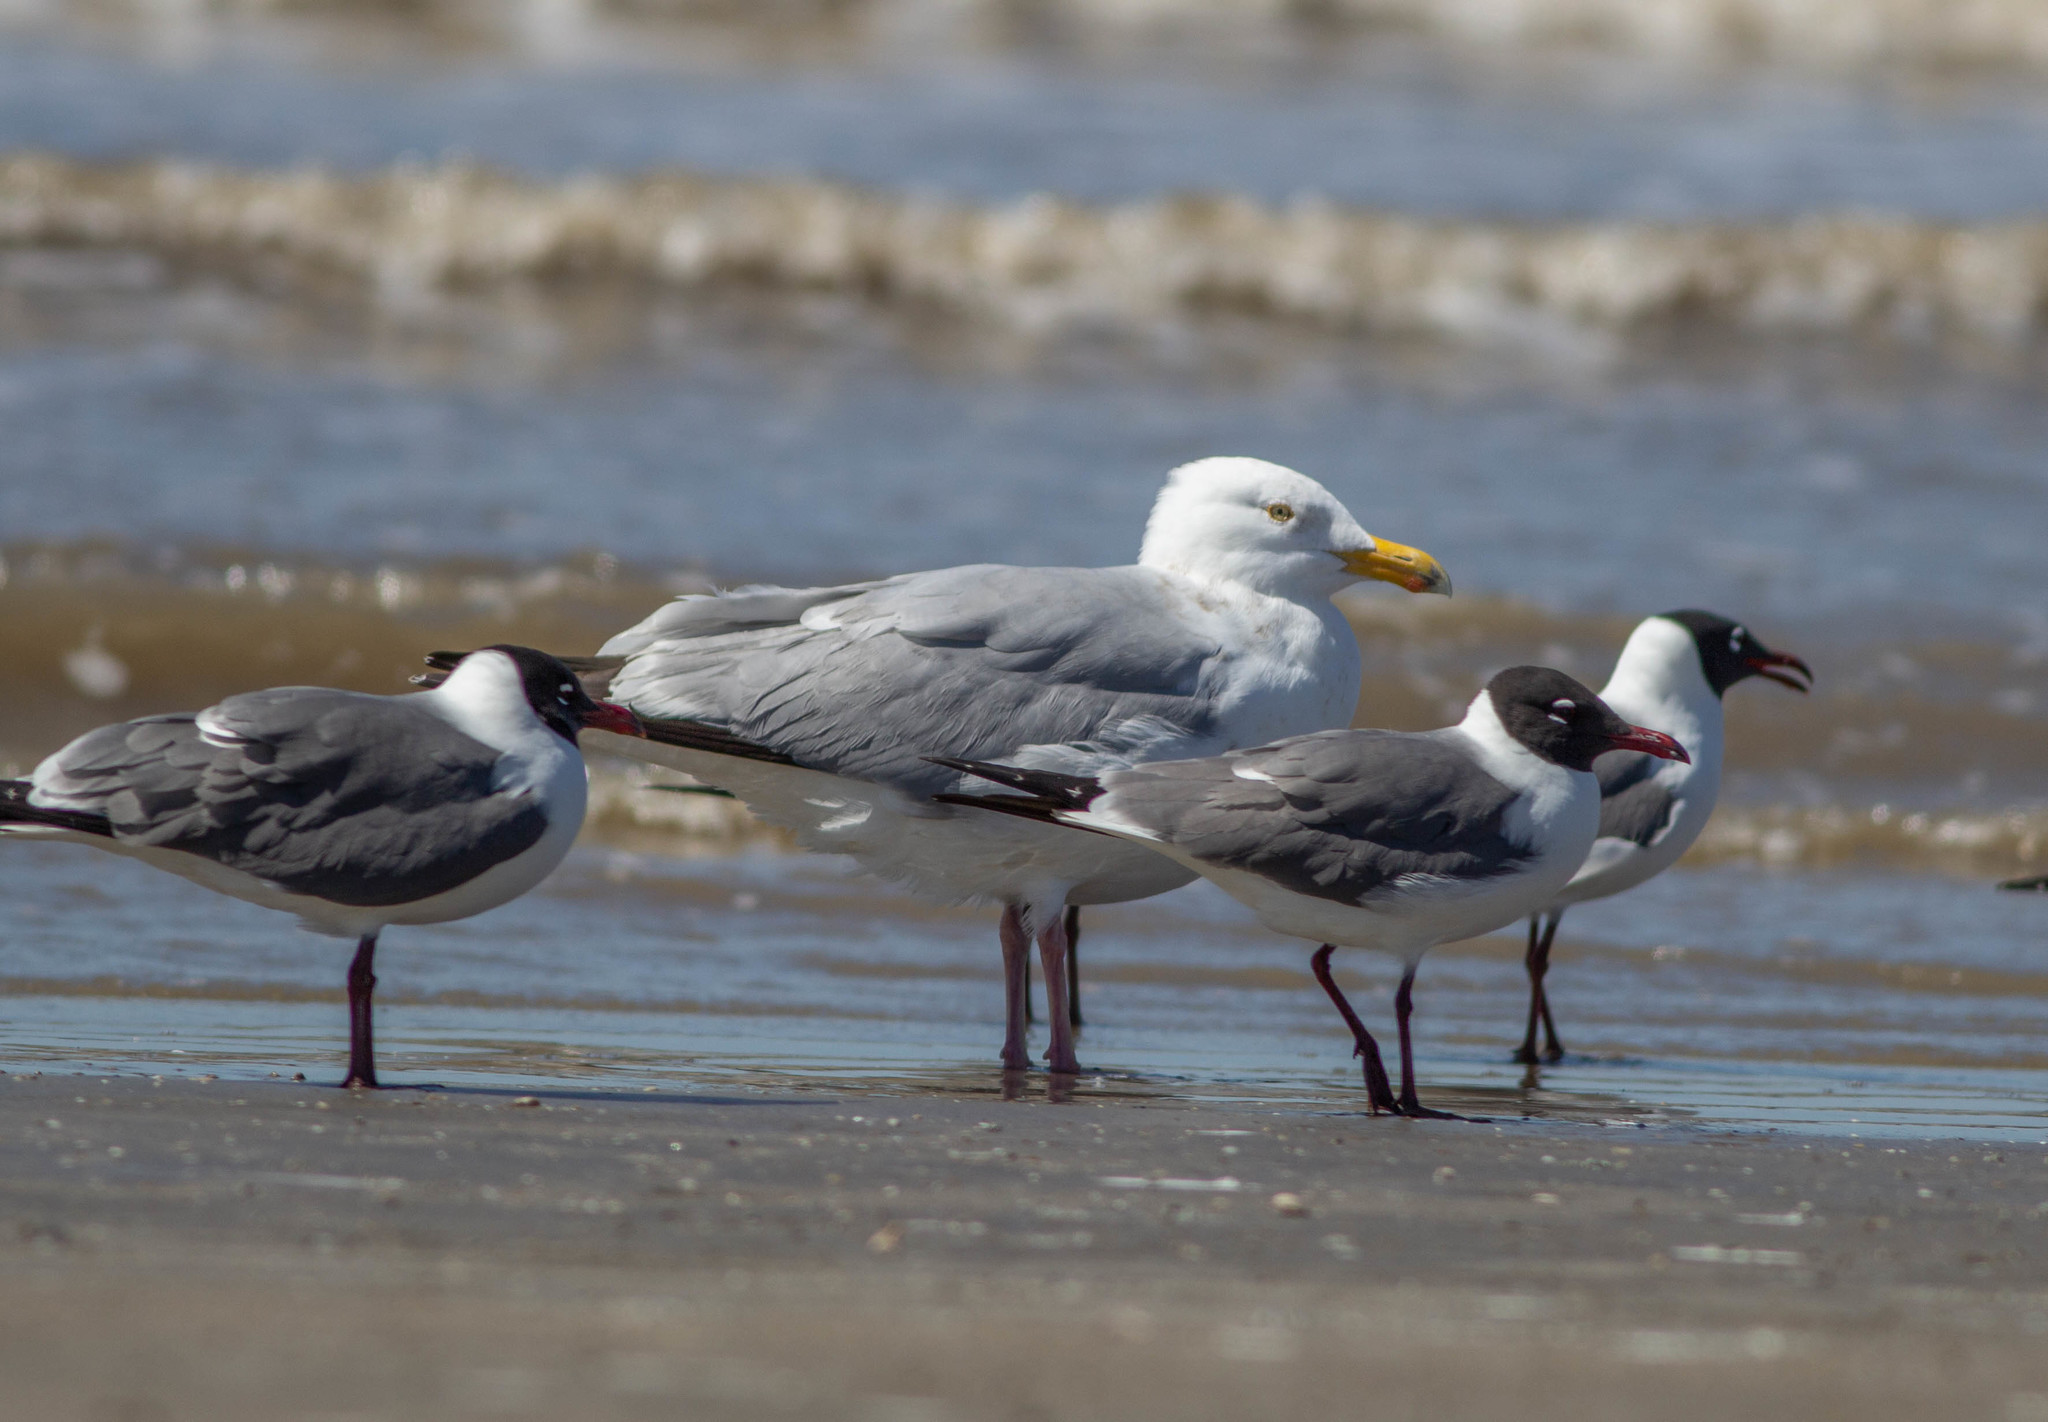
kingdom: Animalia
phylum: Chordata
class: Aves
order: Charadriiformes
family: Laridae
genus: Larus
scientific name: Larus argentatus
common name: Herring gull
